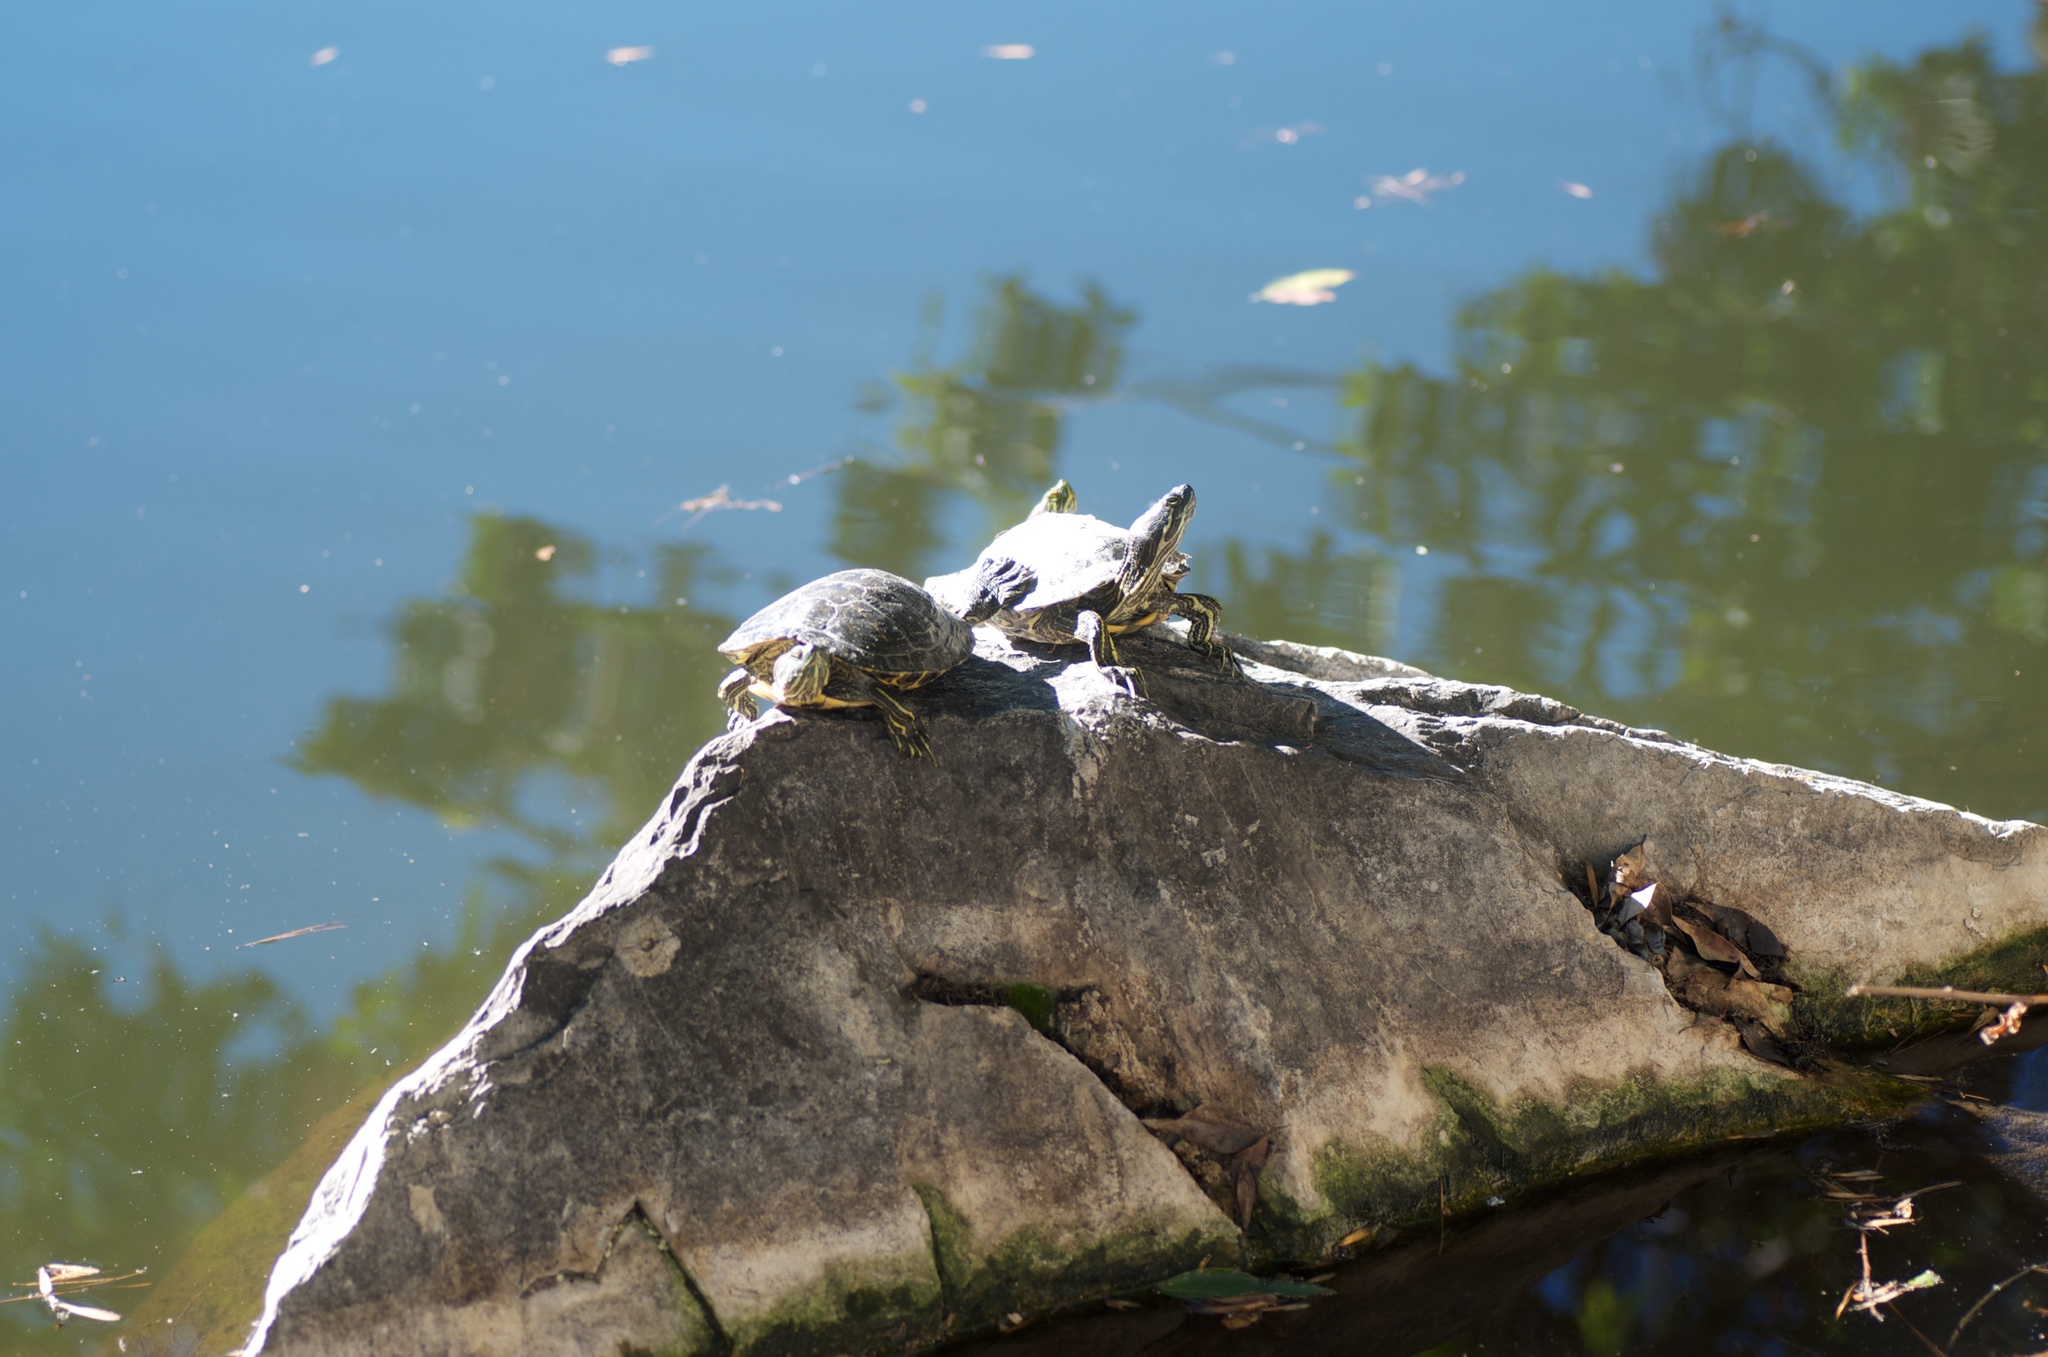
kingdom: Animalia
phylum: Chordata
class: Testudines
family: Emydidae
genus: Trachemys
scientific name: Trachemys scripta
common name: Slider
